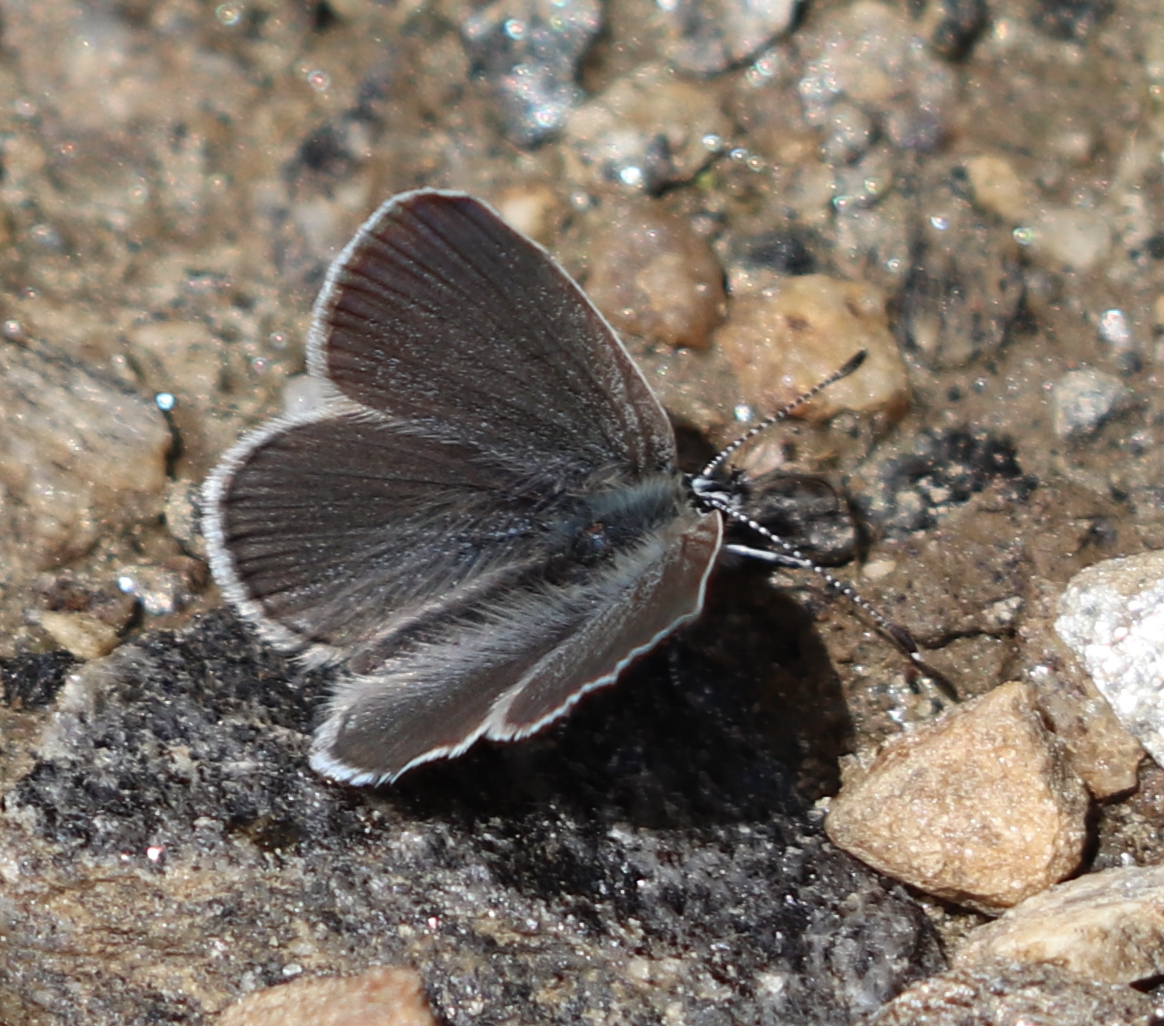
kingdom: Animalia
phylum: Arthropoda
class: Insecta
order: Lepidoptera
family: Lycaenidae
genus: Cupido
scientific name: Cupido minimus
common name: Small blue
